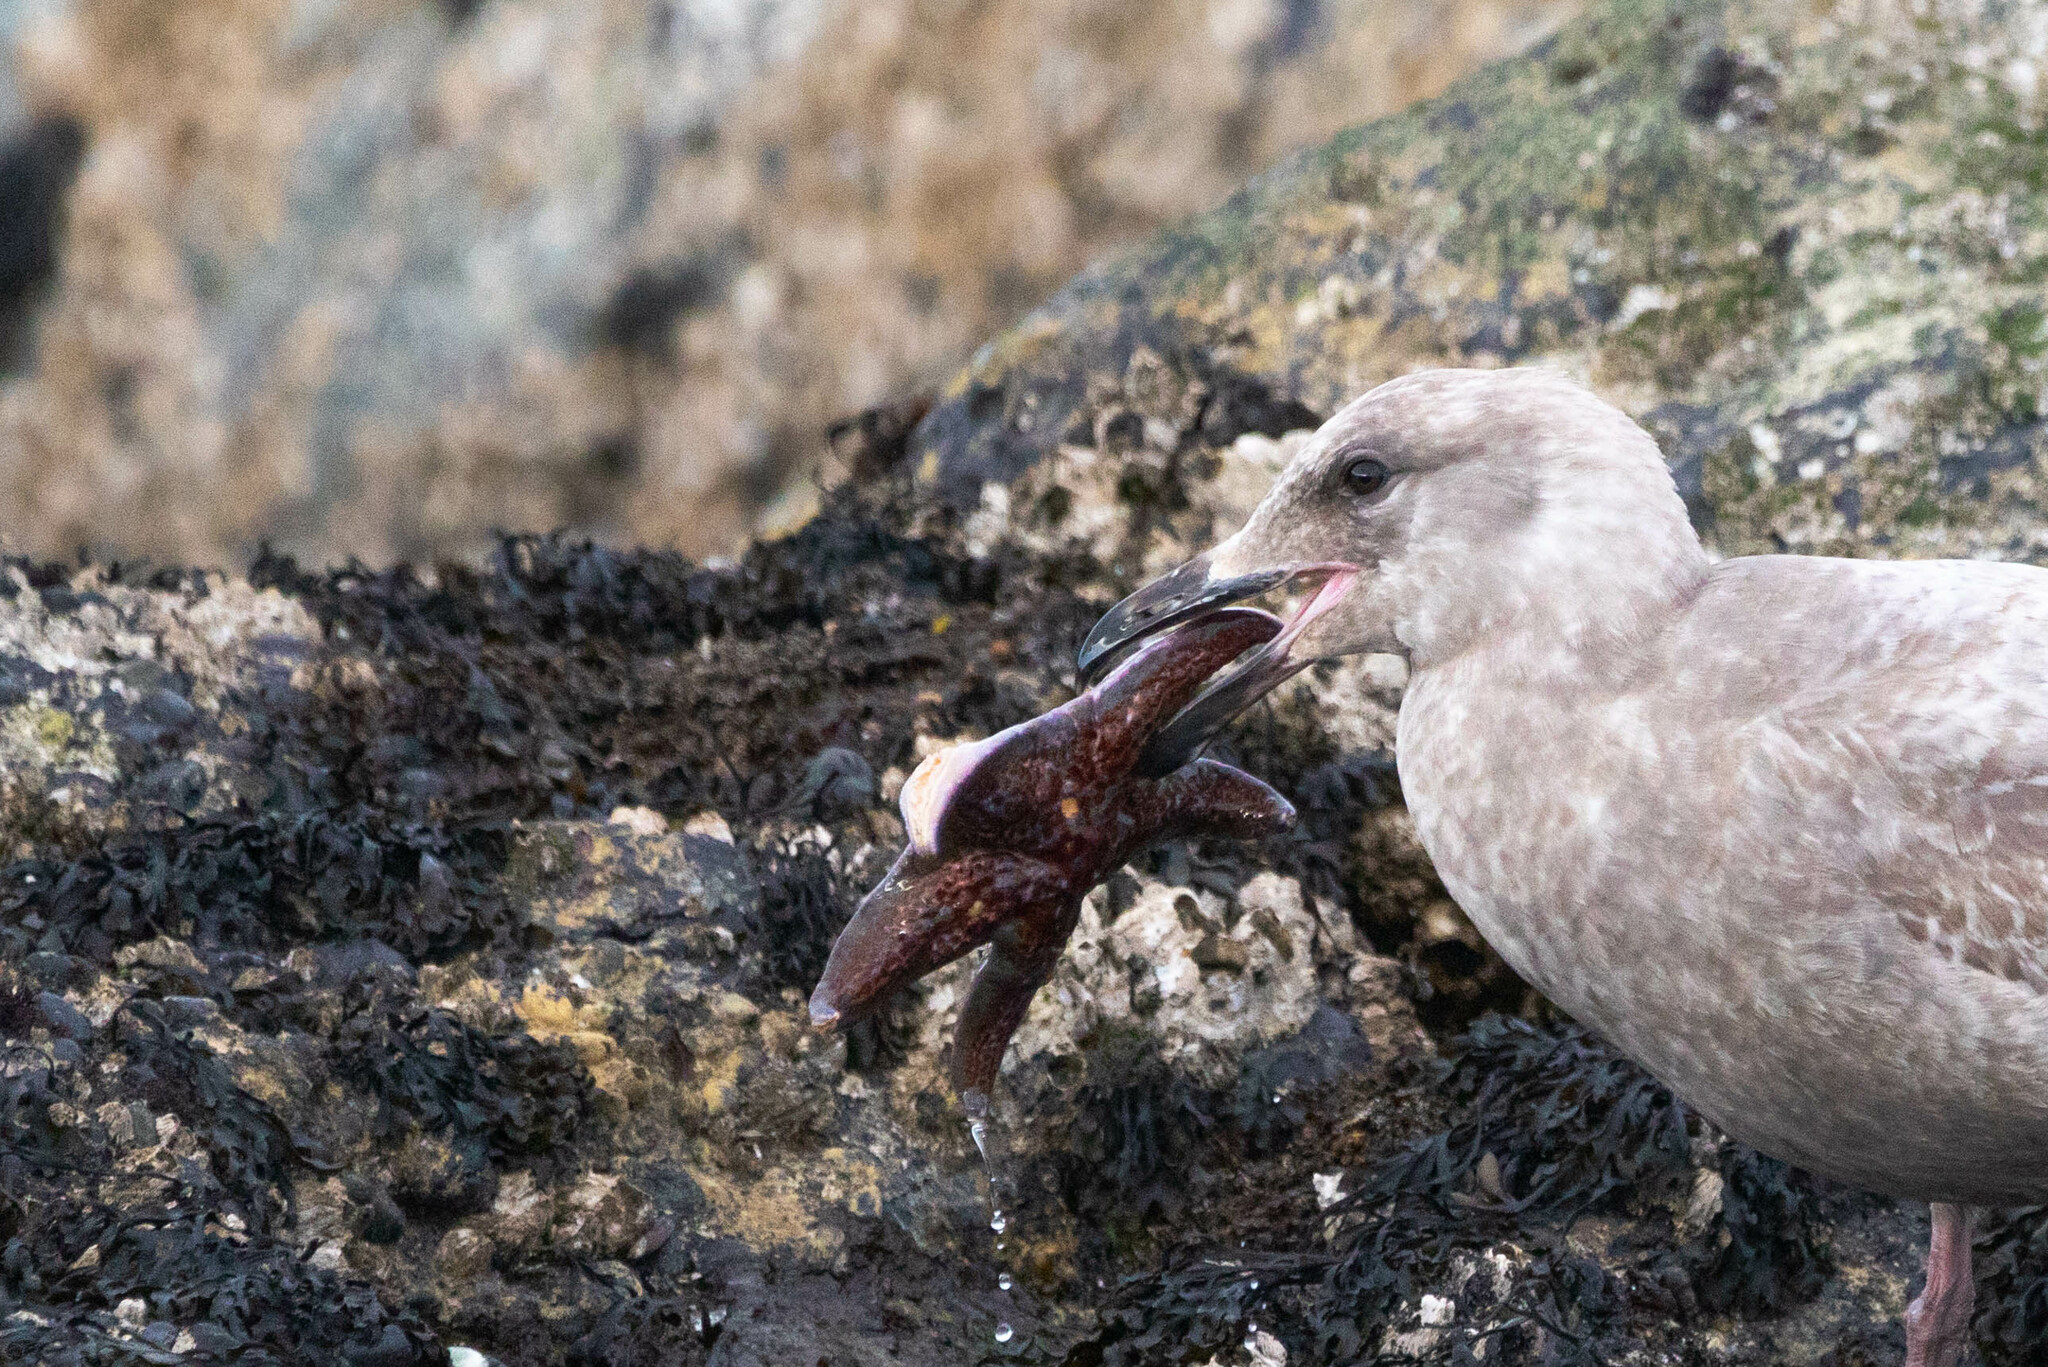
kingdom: Animalia
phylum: Echinodermata
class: Asteroidea
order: Valvatida
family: Asteropseidae
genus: Dermasterias
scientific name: Dermasterias imbricata
